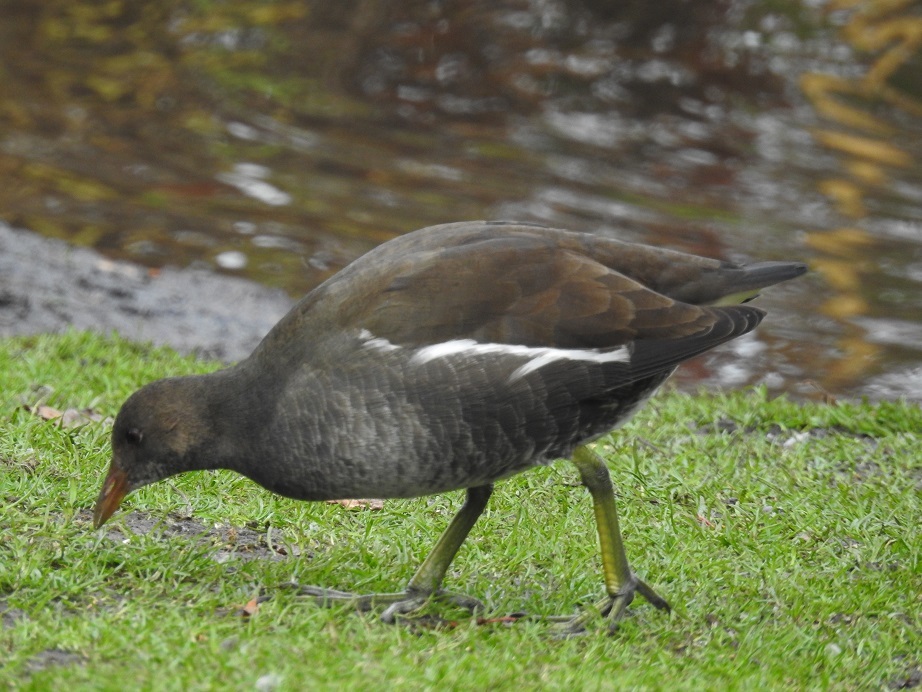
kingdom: Animalia
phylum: Chordata
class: Aves
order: Gruiformes
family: Rallidae
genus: Gallinula
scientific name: Gallinula chloropus
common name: Common moorhen
